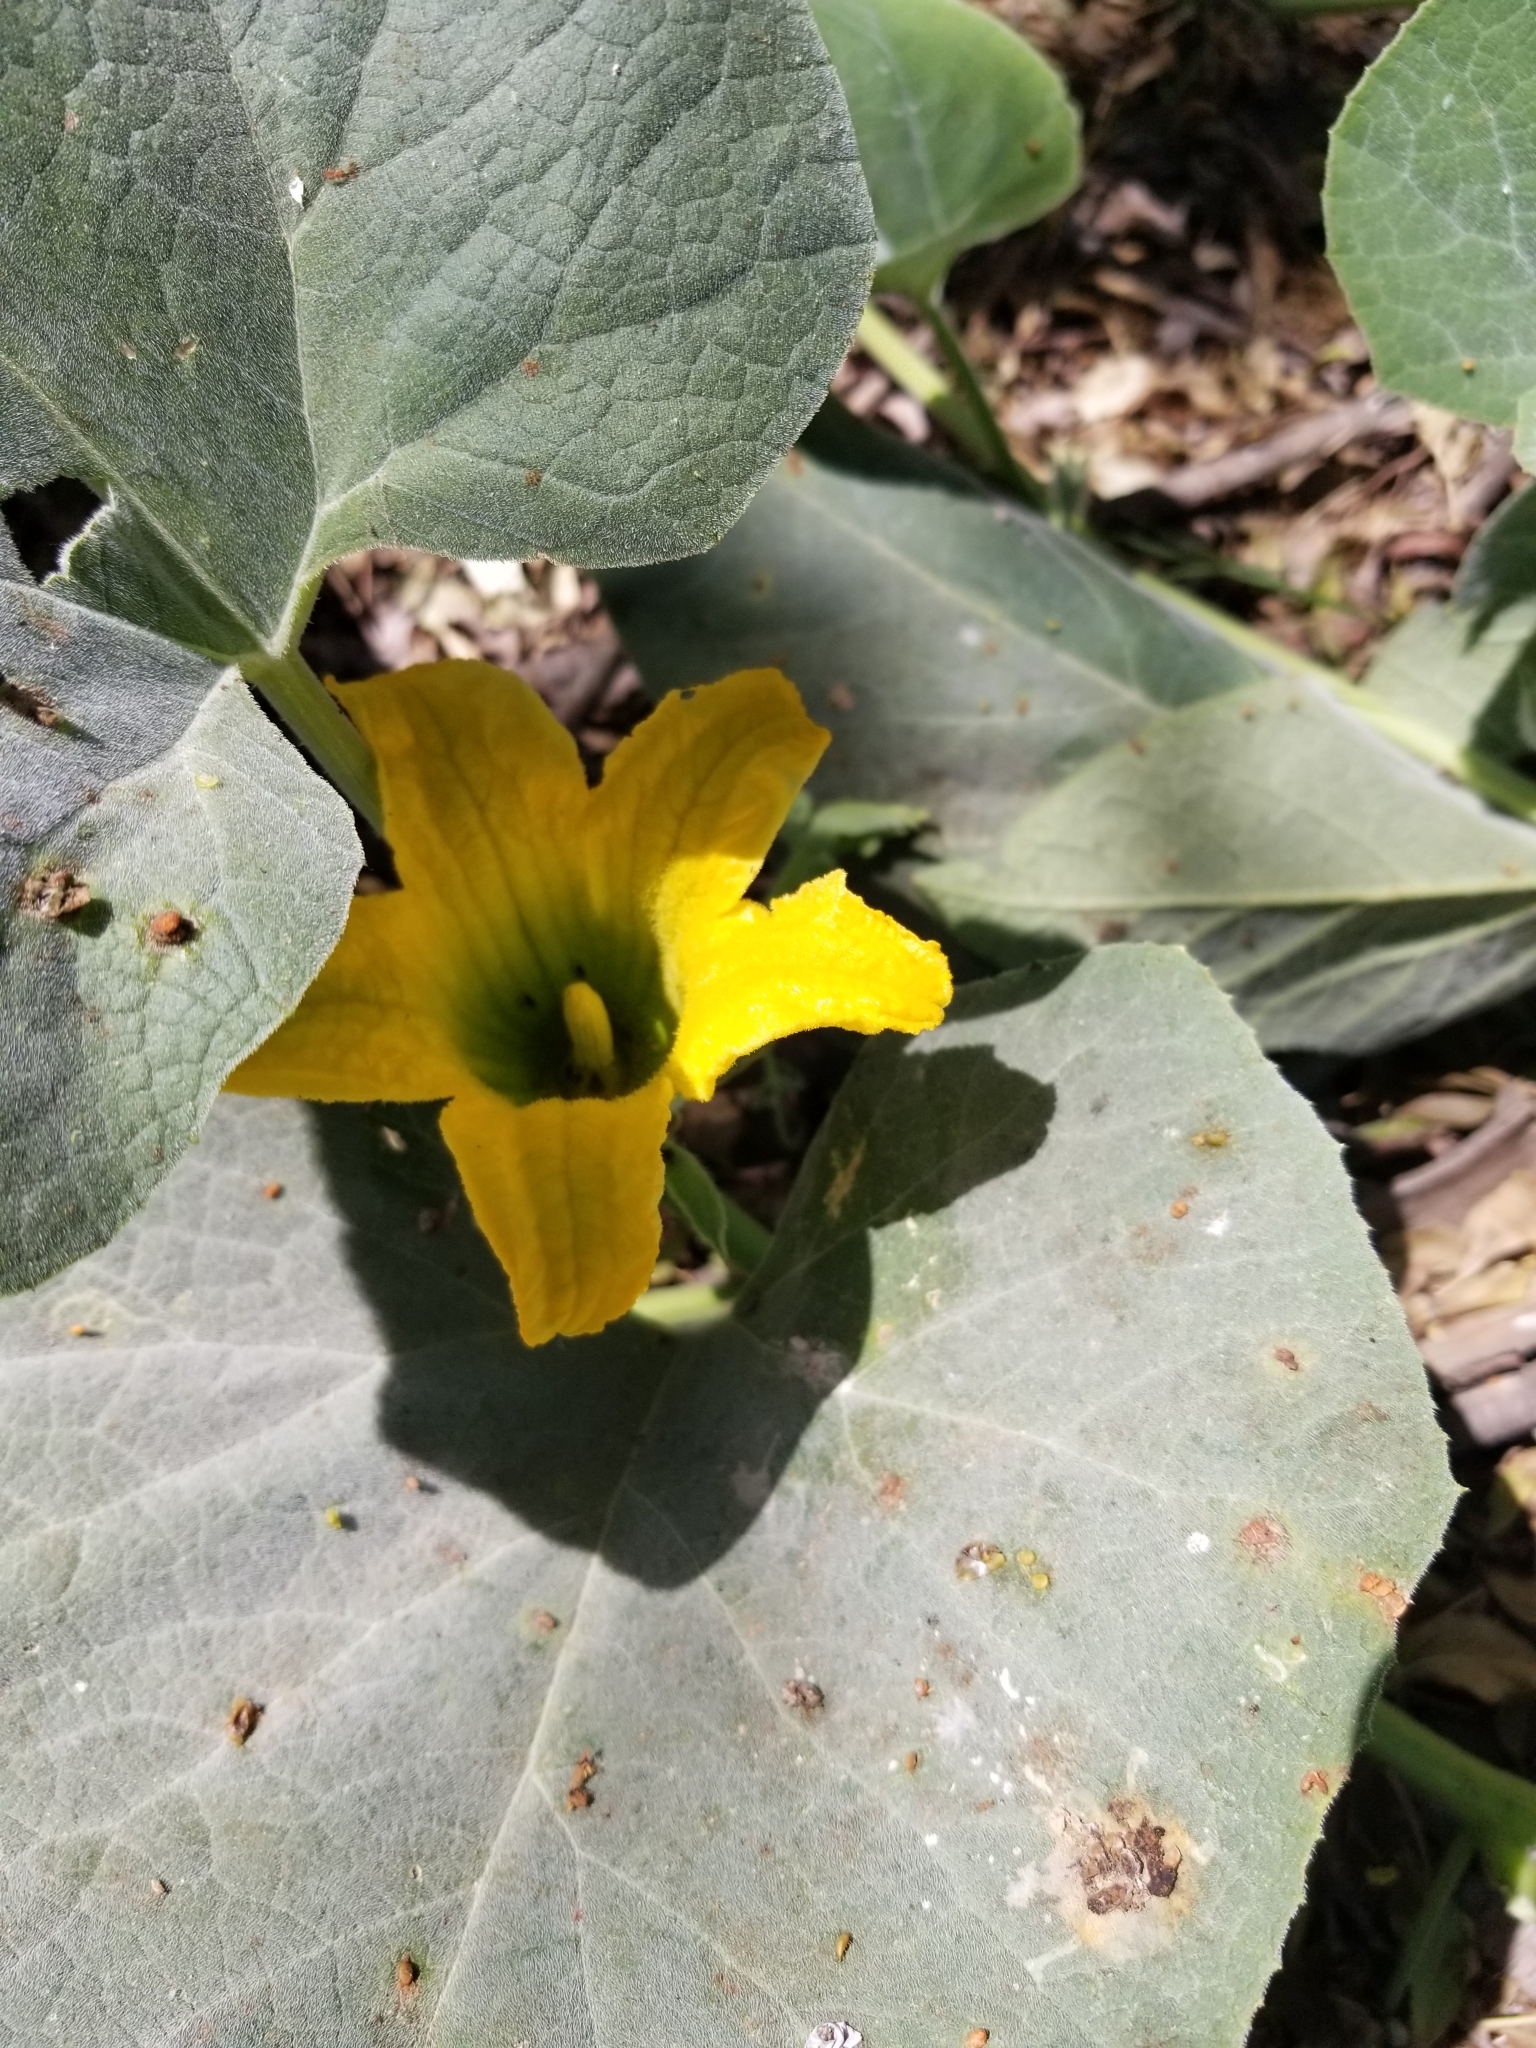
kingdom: Plantae
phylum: Tracheophyta
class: Magnoliopsida
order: Cucurbitales
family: Cucurbitaceae
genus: Cucurbita
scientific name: Cucurbita foetidissima
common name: Buffalo gourd
